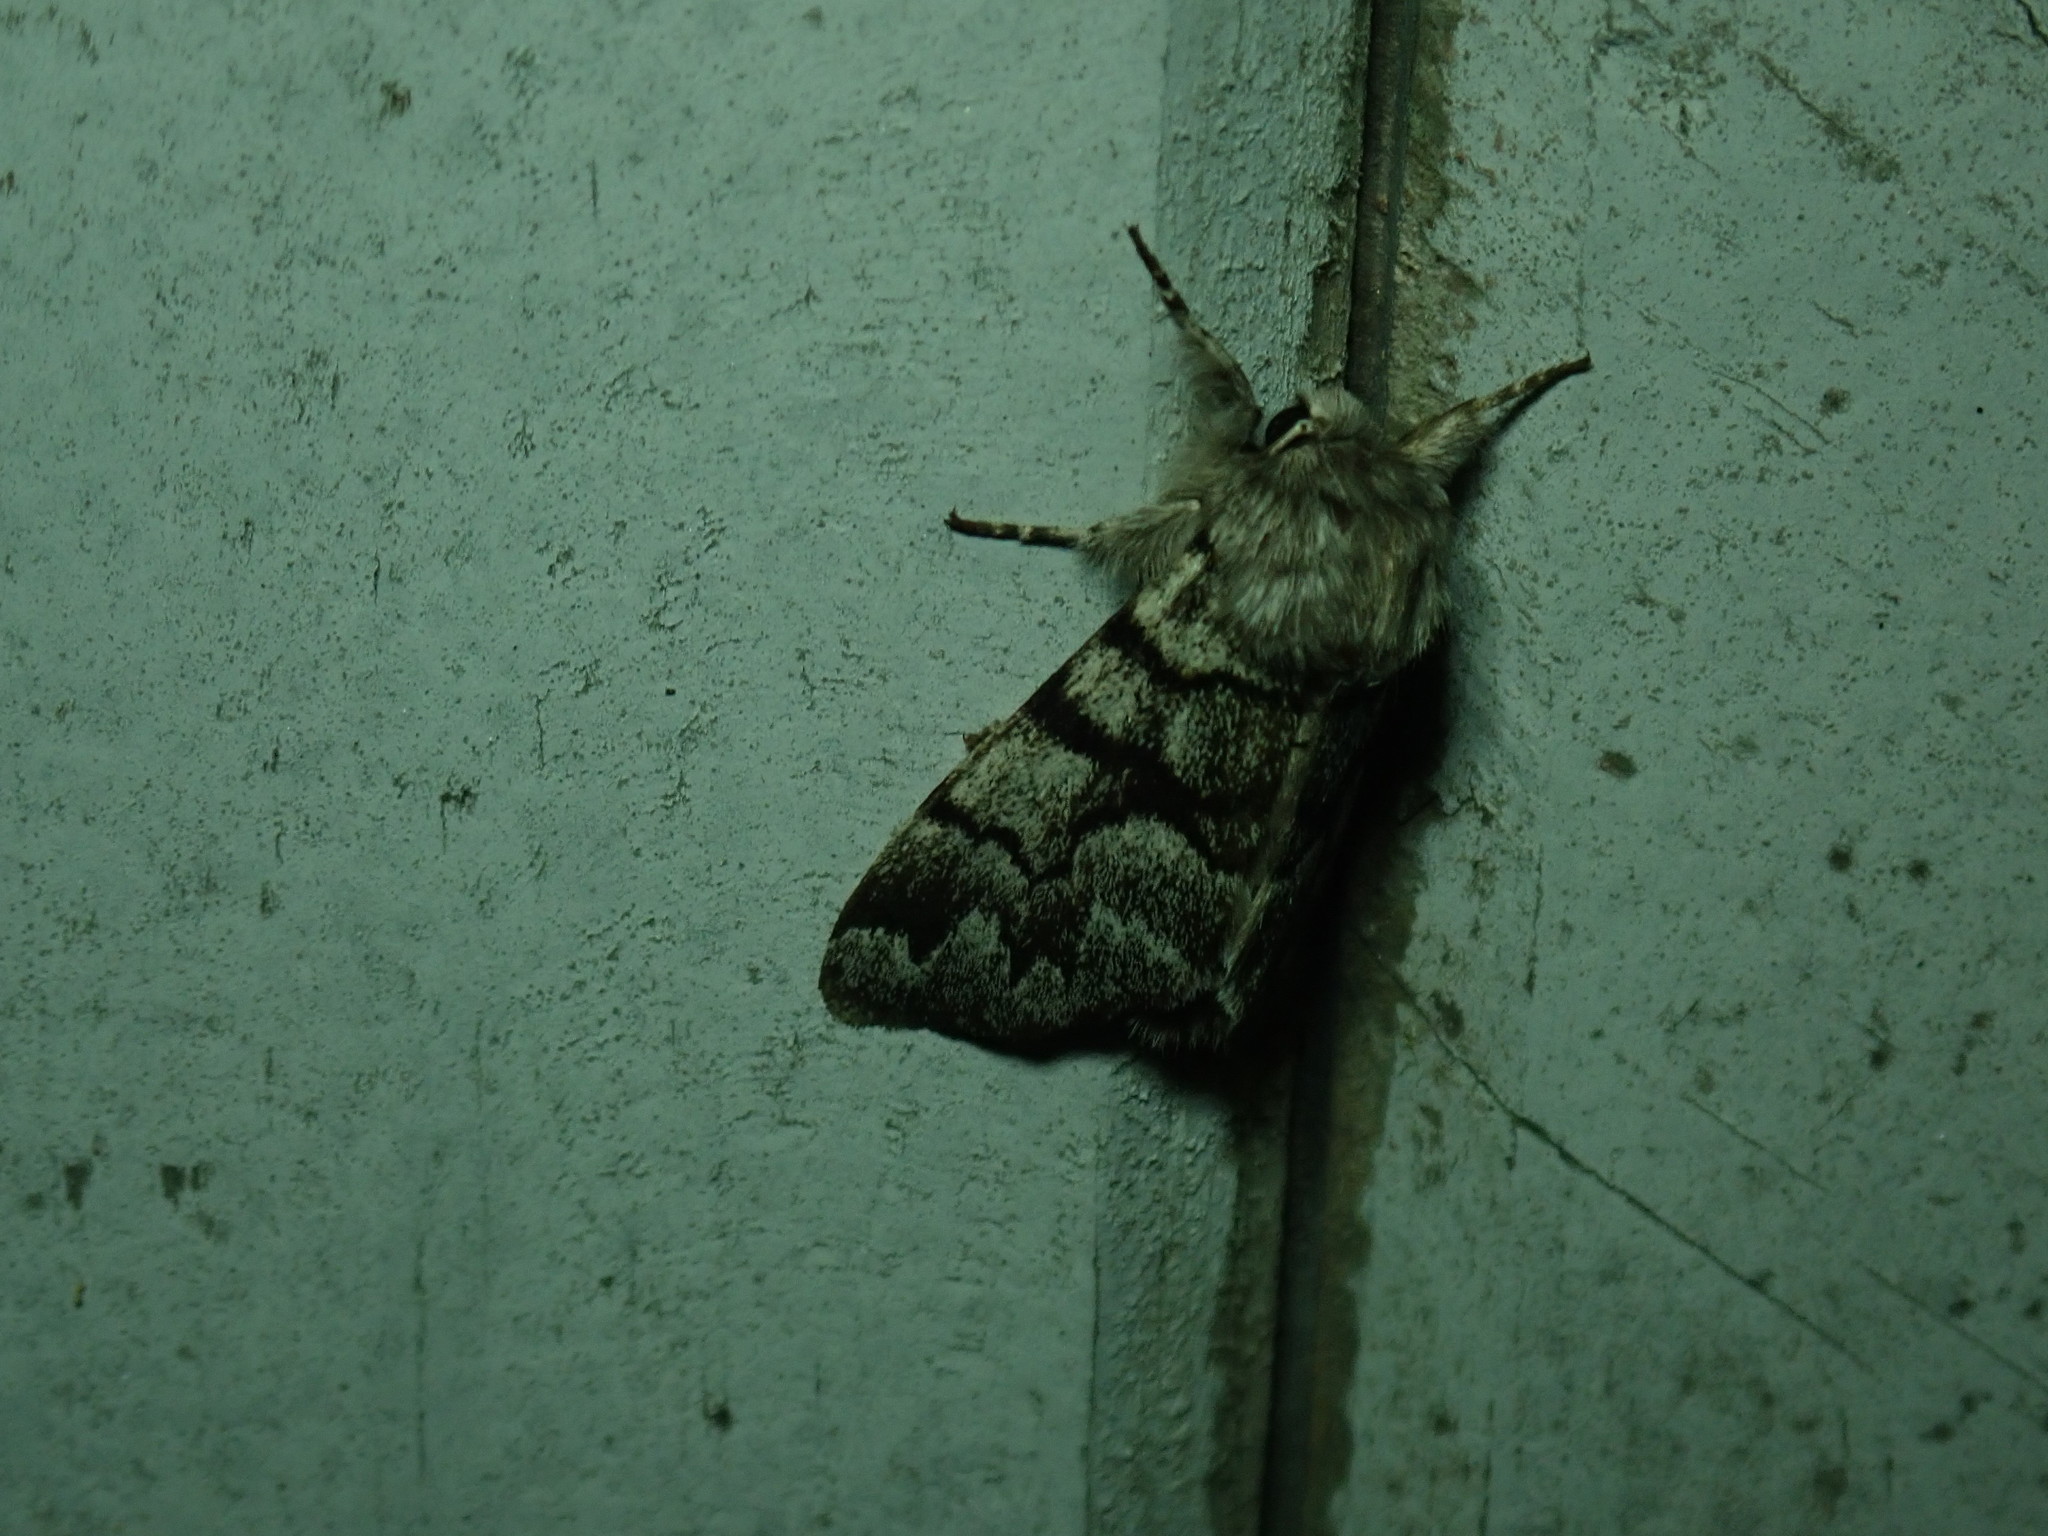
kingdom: Animalia
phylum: Arthropoda
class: Insecta
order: Lepidoptera
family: Noctuidae
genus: Panthea
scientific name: Panthea furcilla
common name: Eastern panthea moth
